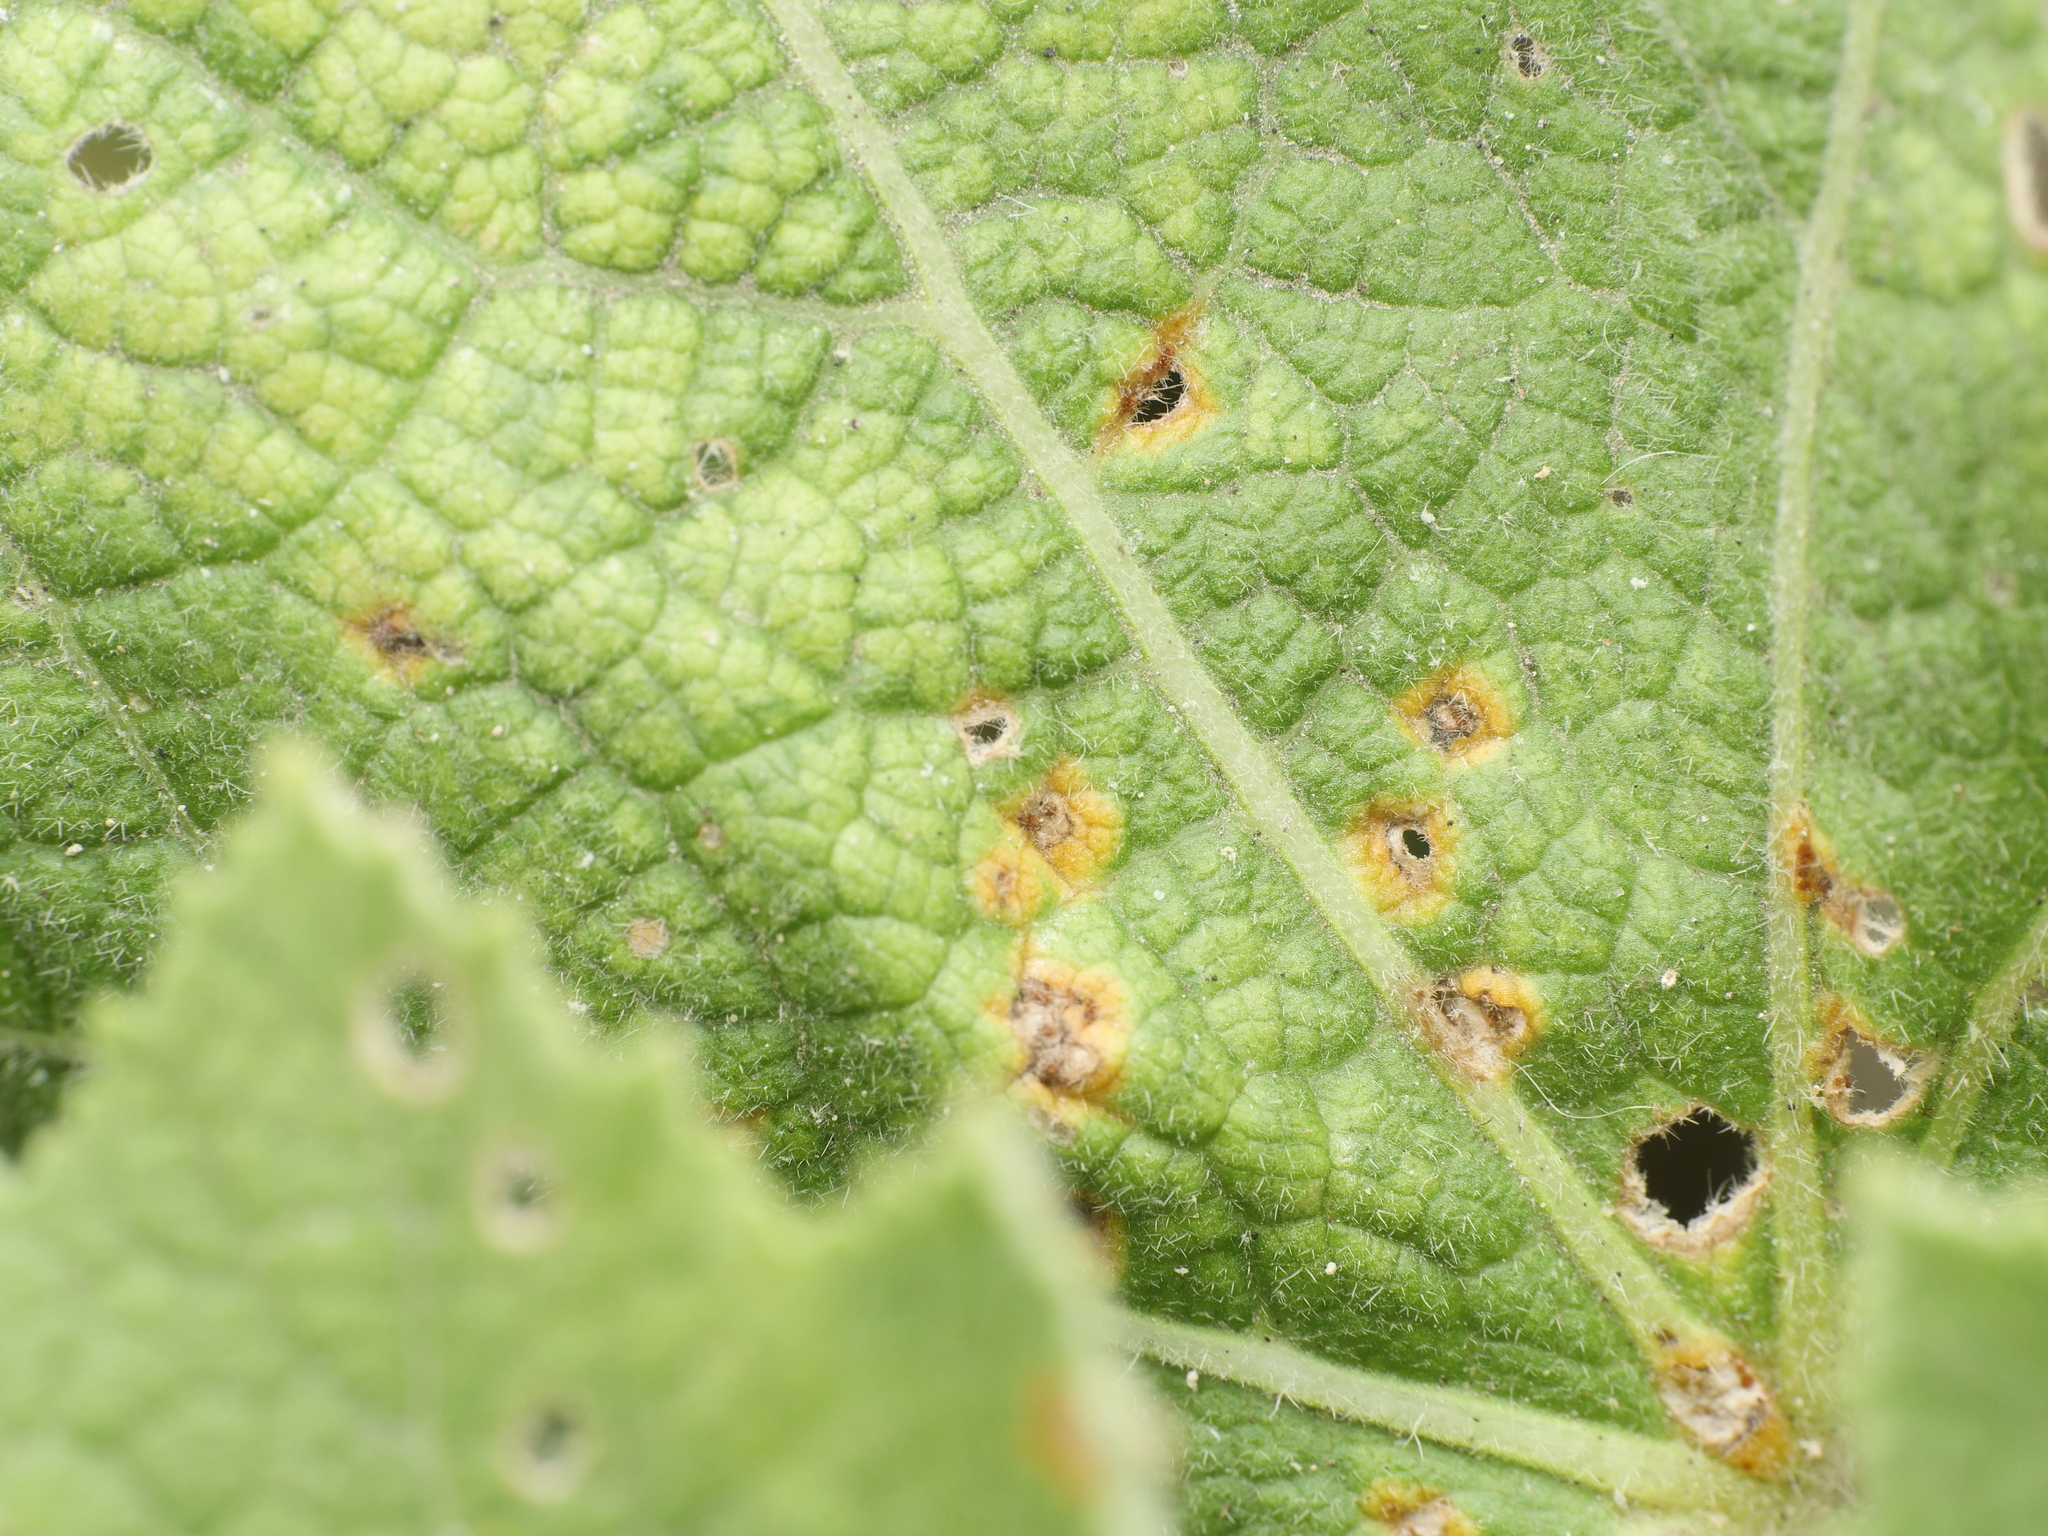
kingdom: Fungi
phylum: Basidiomycota
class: Pucciniomycetes
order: Pucciniales
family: Pucciniaceae
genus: Puccinia
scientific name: Puccinia malvacearum
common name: Hollyhock rust
